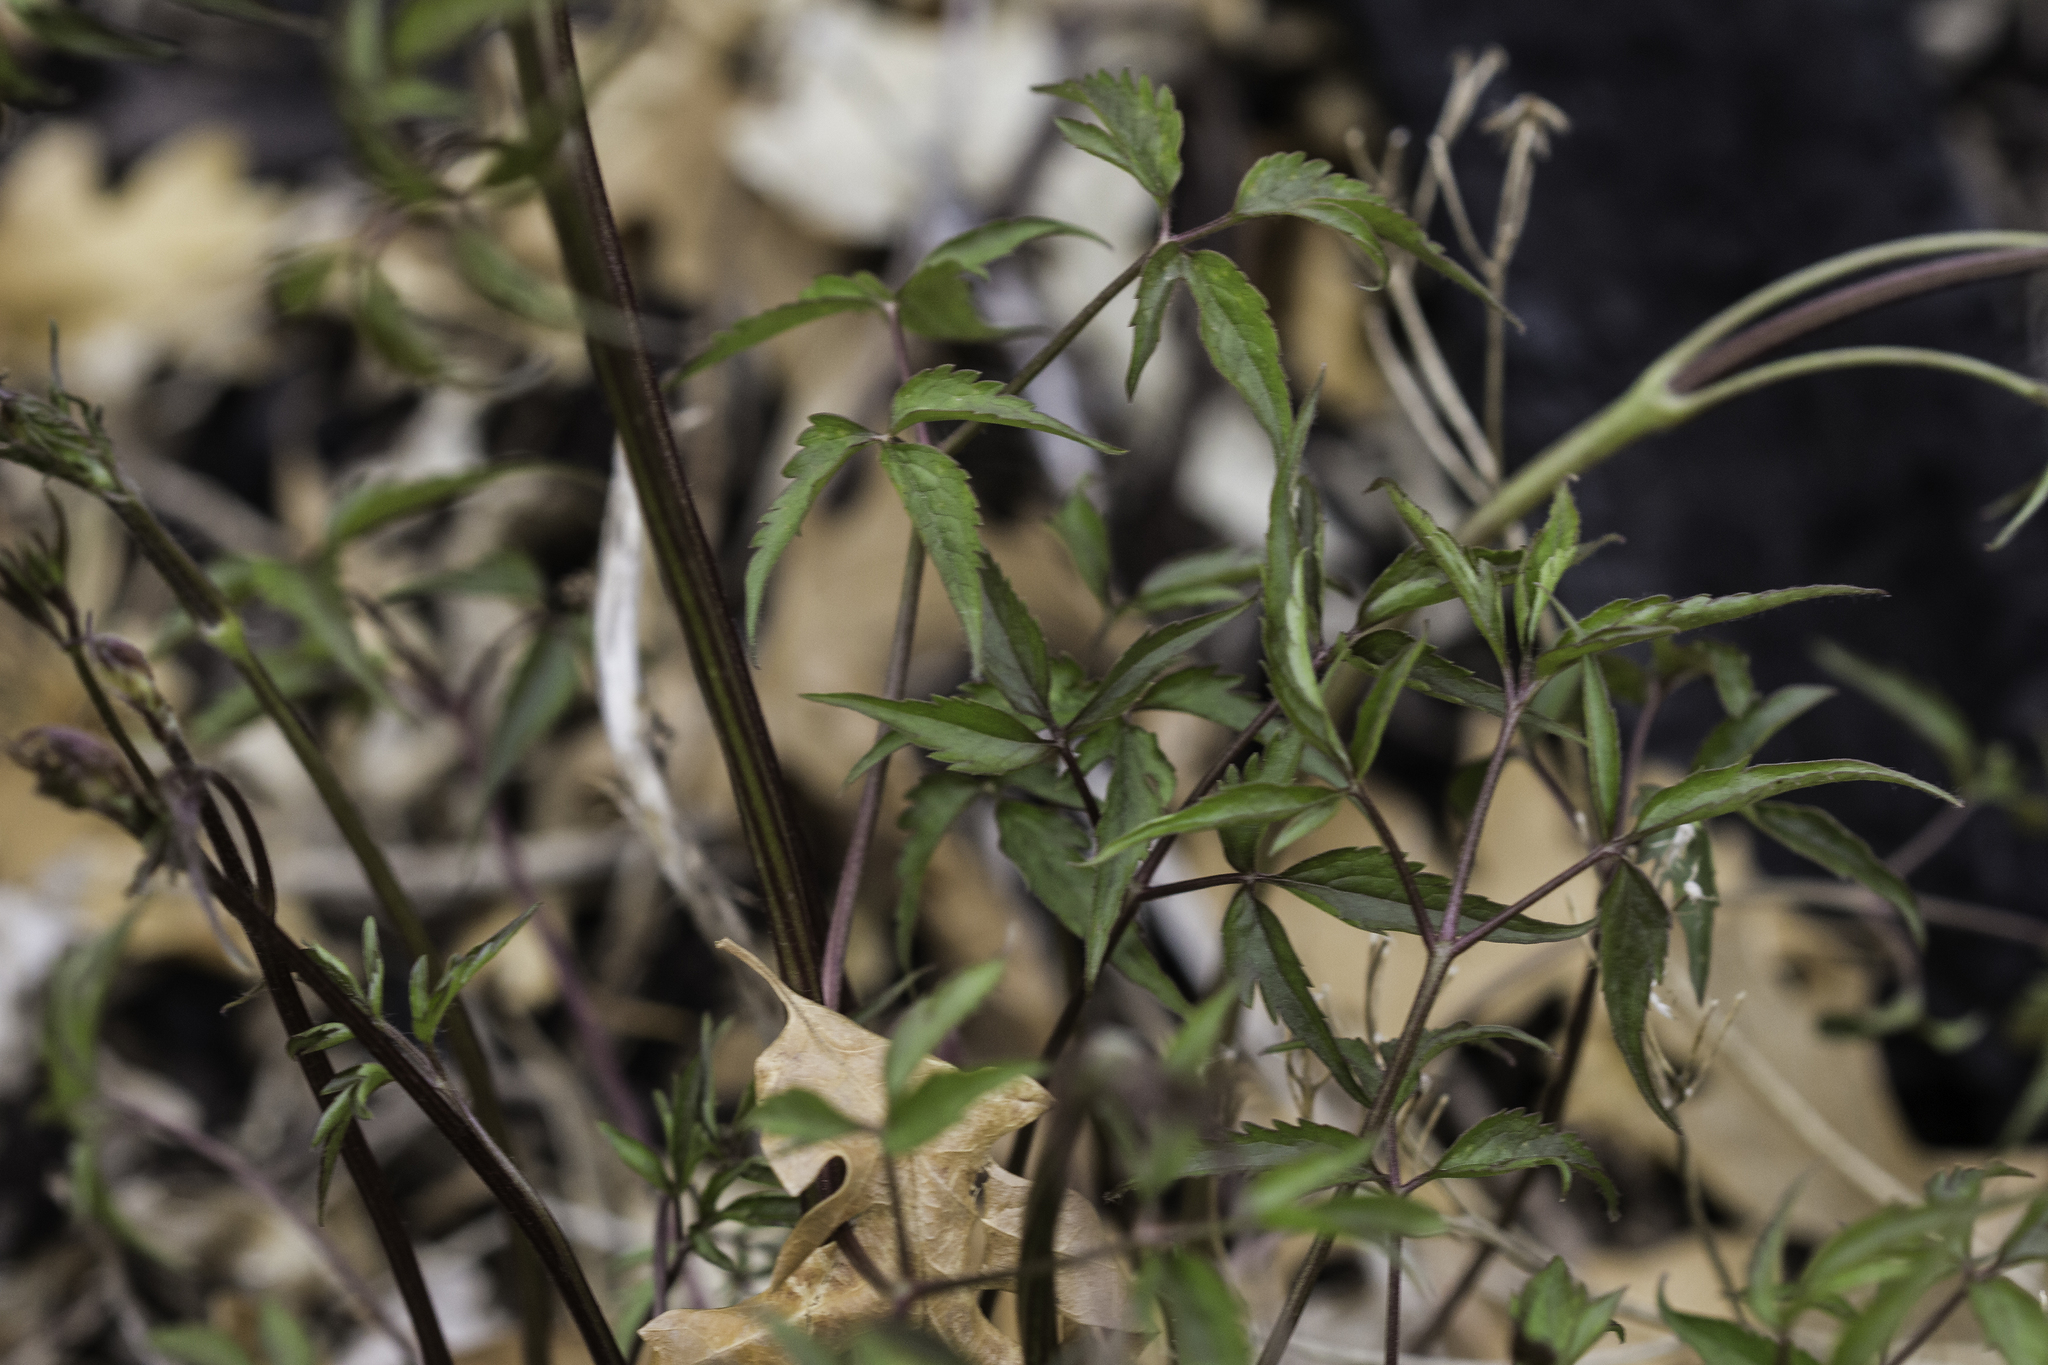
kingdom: Plantae
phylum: Tracheophyta
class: Magnoliopsida
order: Ranunculales
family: Ranunculaceae
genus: Clematis
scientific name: Clematis columbiana
